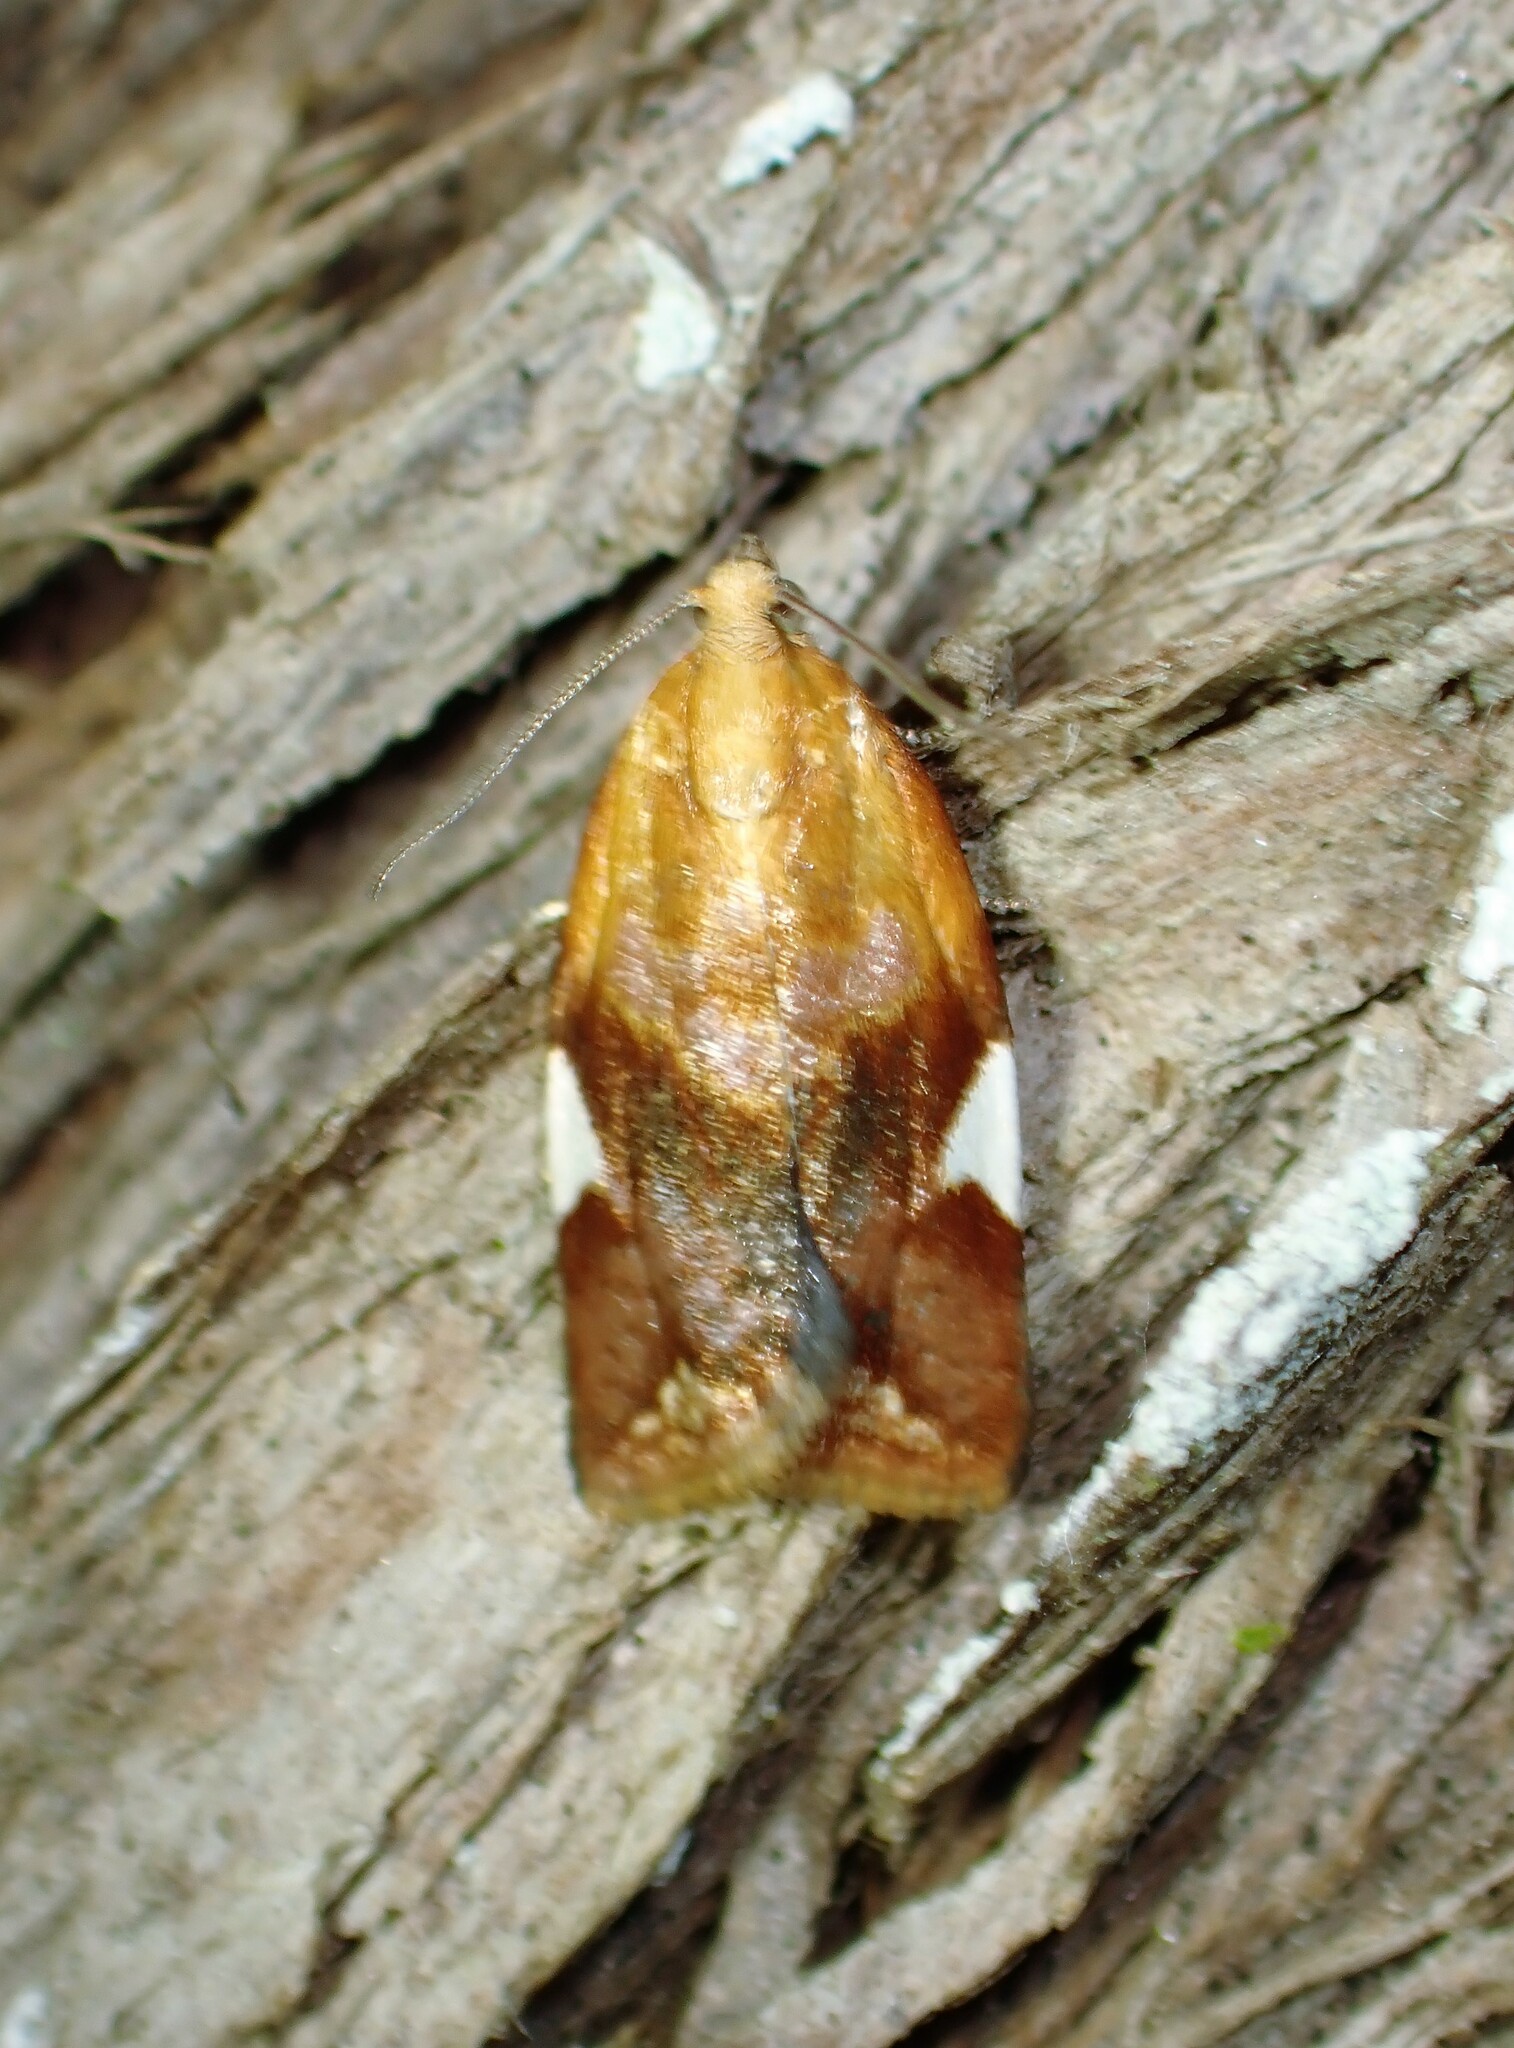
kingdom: Animalia
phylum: Arthropoda
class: Insecta
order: Lepidoptera
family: Tortricidae
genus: Clepsis
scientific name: Clepsis persicana
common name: White triangle tortrix
